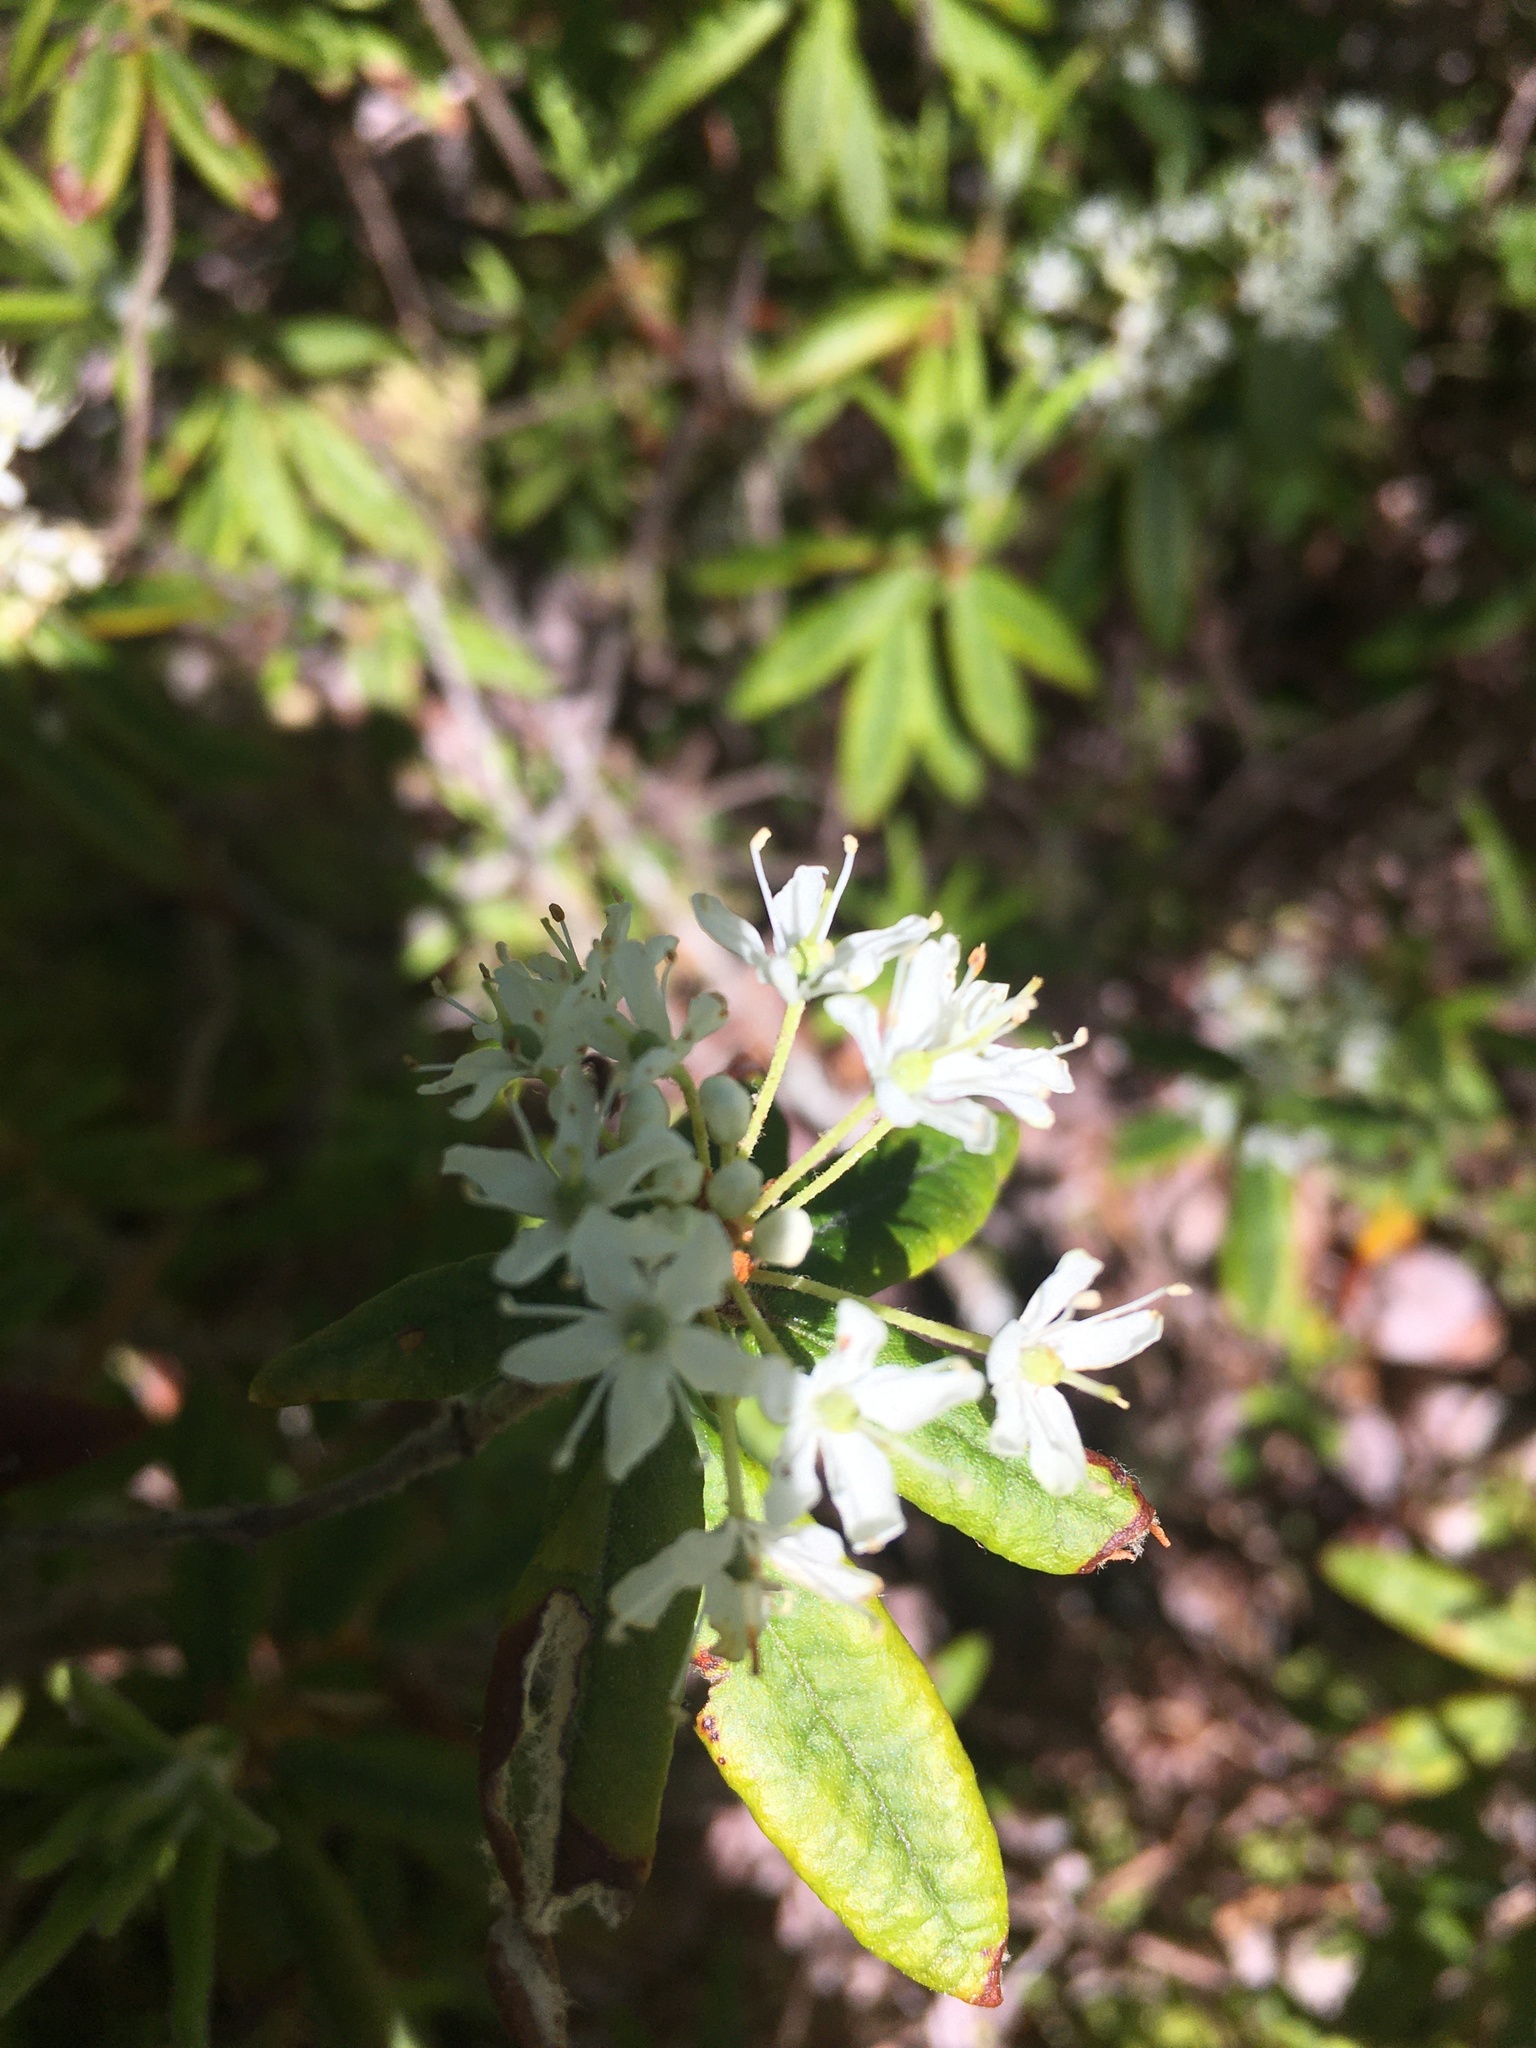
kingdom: Plantae
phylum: Tracheophyta
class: Magnoliopsida
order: Ericales
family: Ericaceae
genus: Rhododendron
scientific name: Rhododendron groenlandicum
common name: Bog labrador tea
